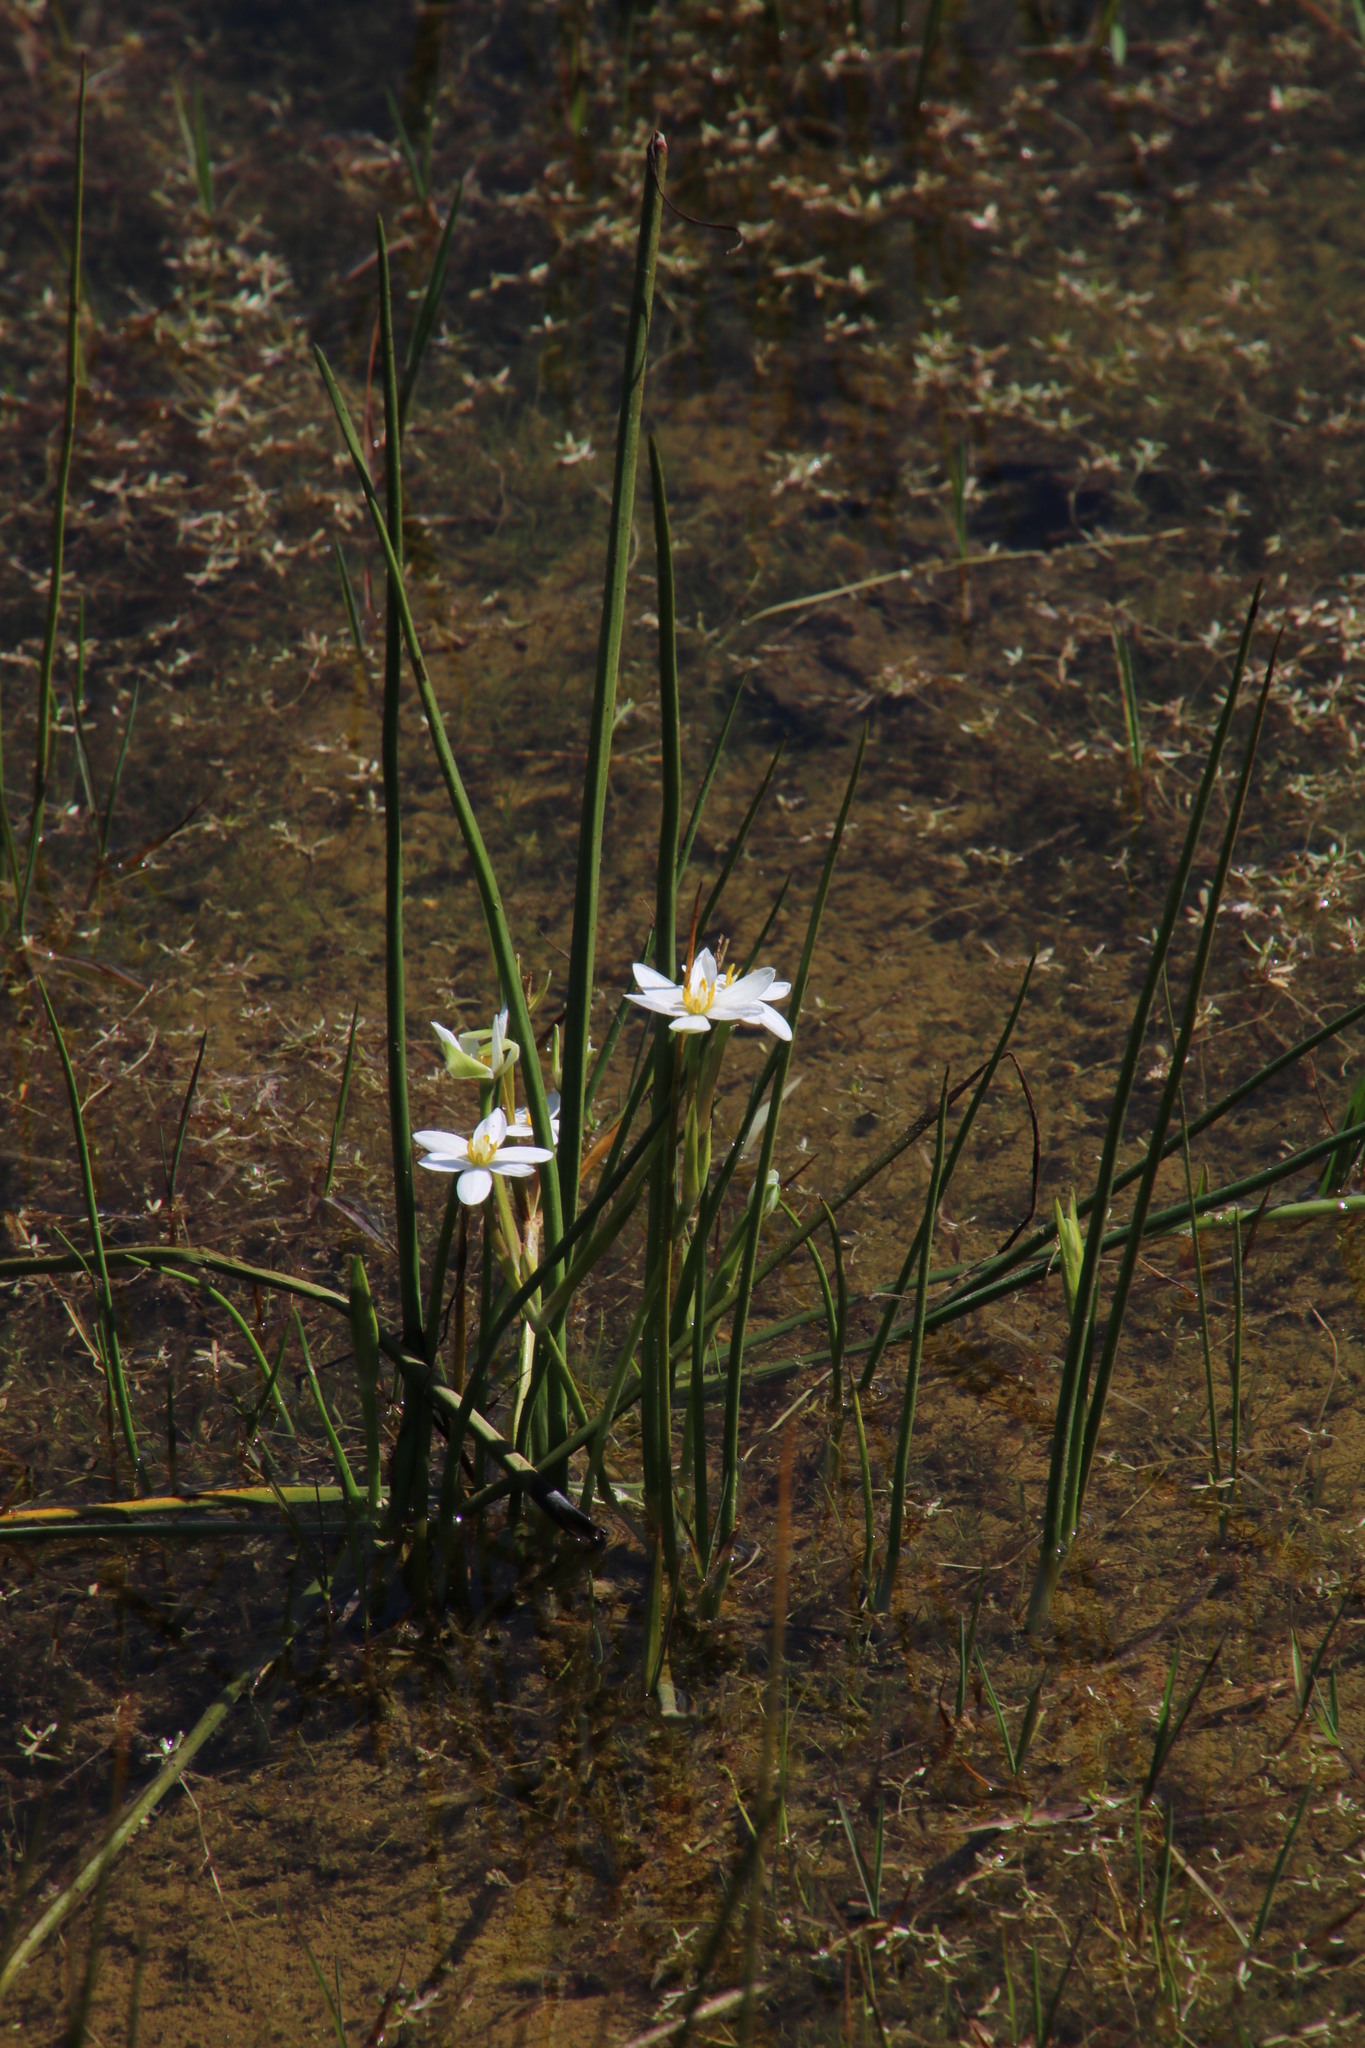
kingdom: Plantae
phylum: Tracheophyta
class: Liliopsida
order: Asparagales
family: Hypoxidaceae
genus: Pauridia
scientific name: Pauridia aquatica
